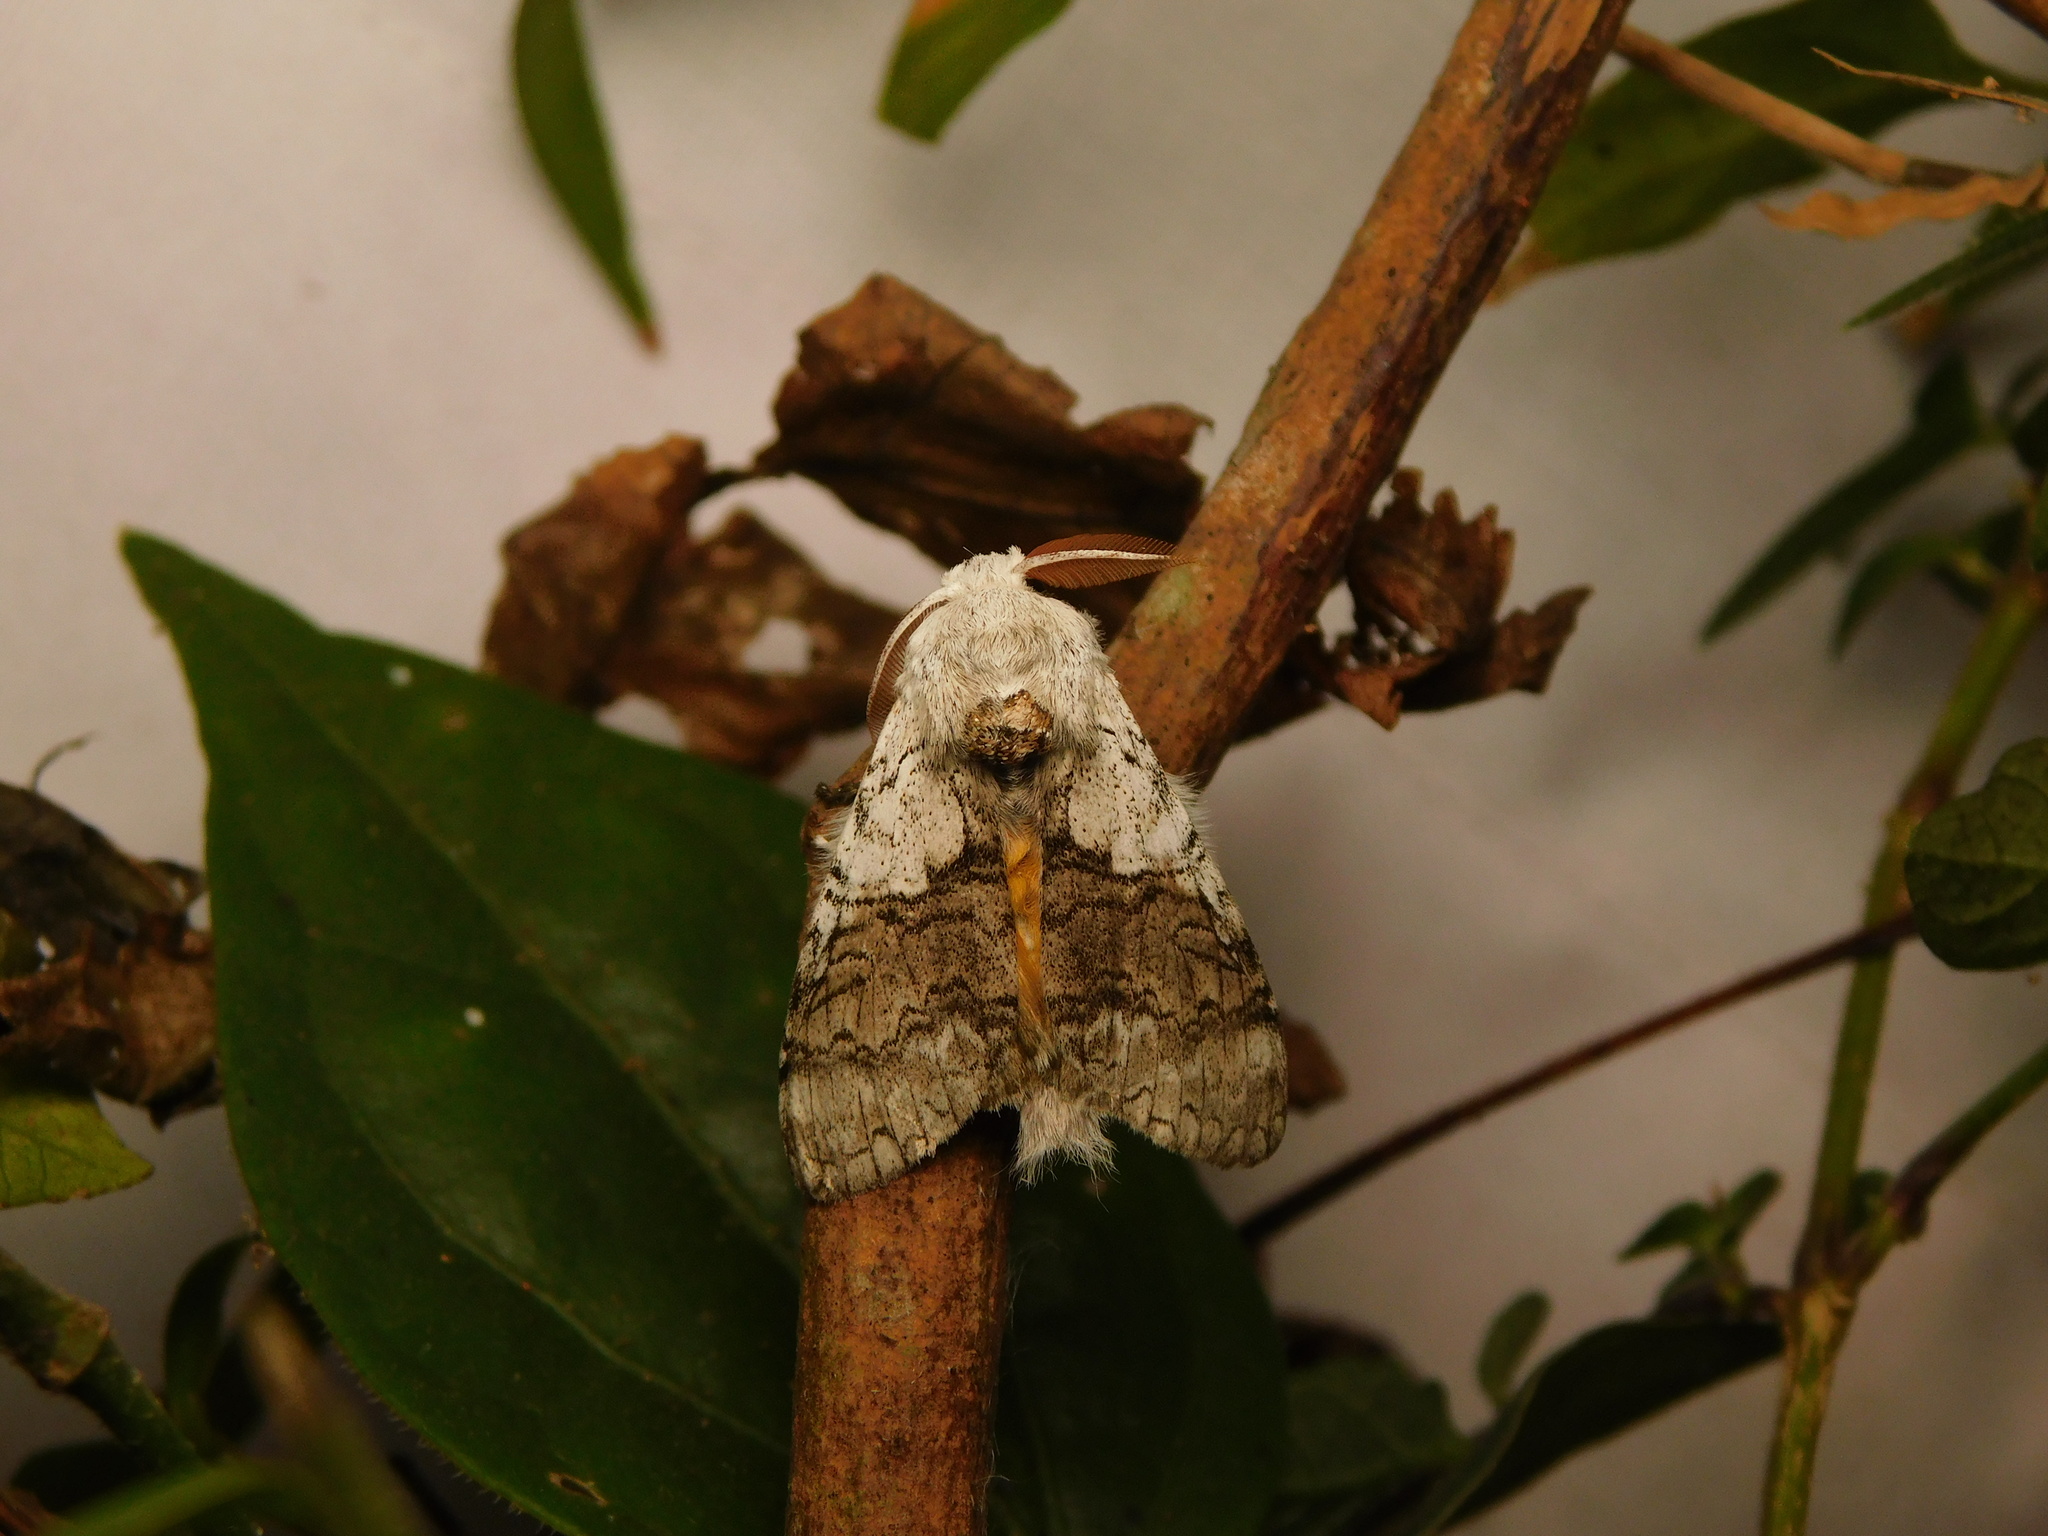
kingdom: Animalia
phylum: Arthropoda
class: Insecta
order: Lepidoptera
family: Erebidae
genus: Calliteara
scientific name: Calliteara horsfieldii
